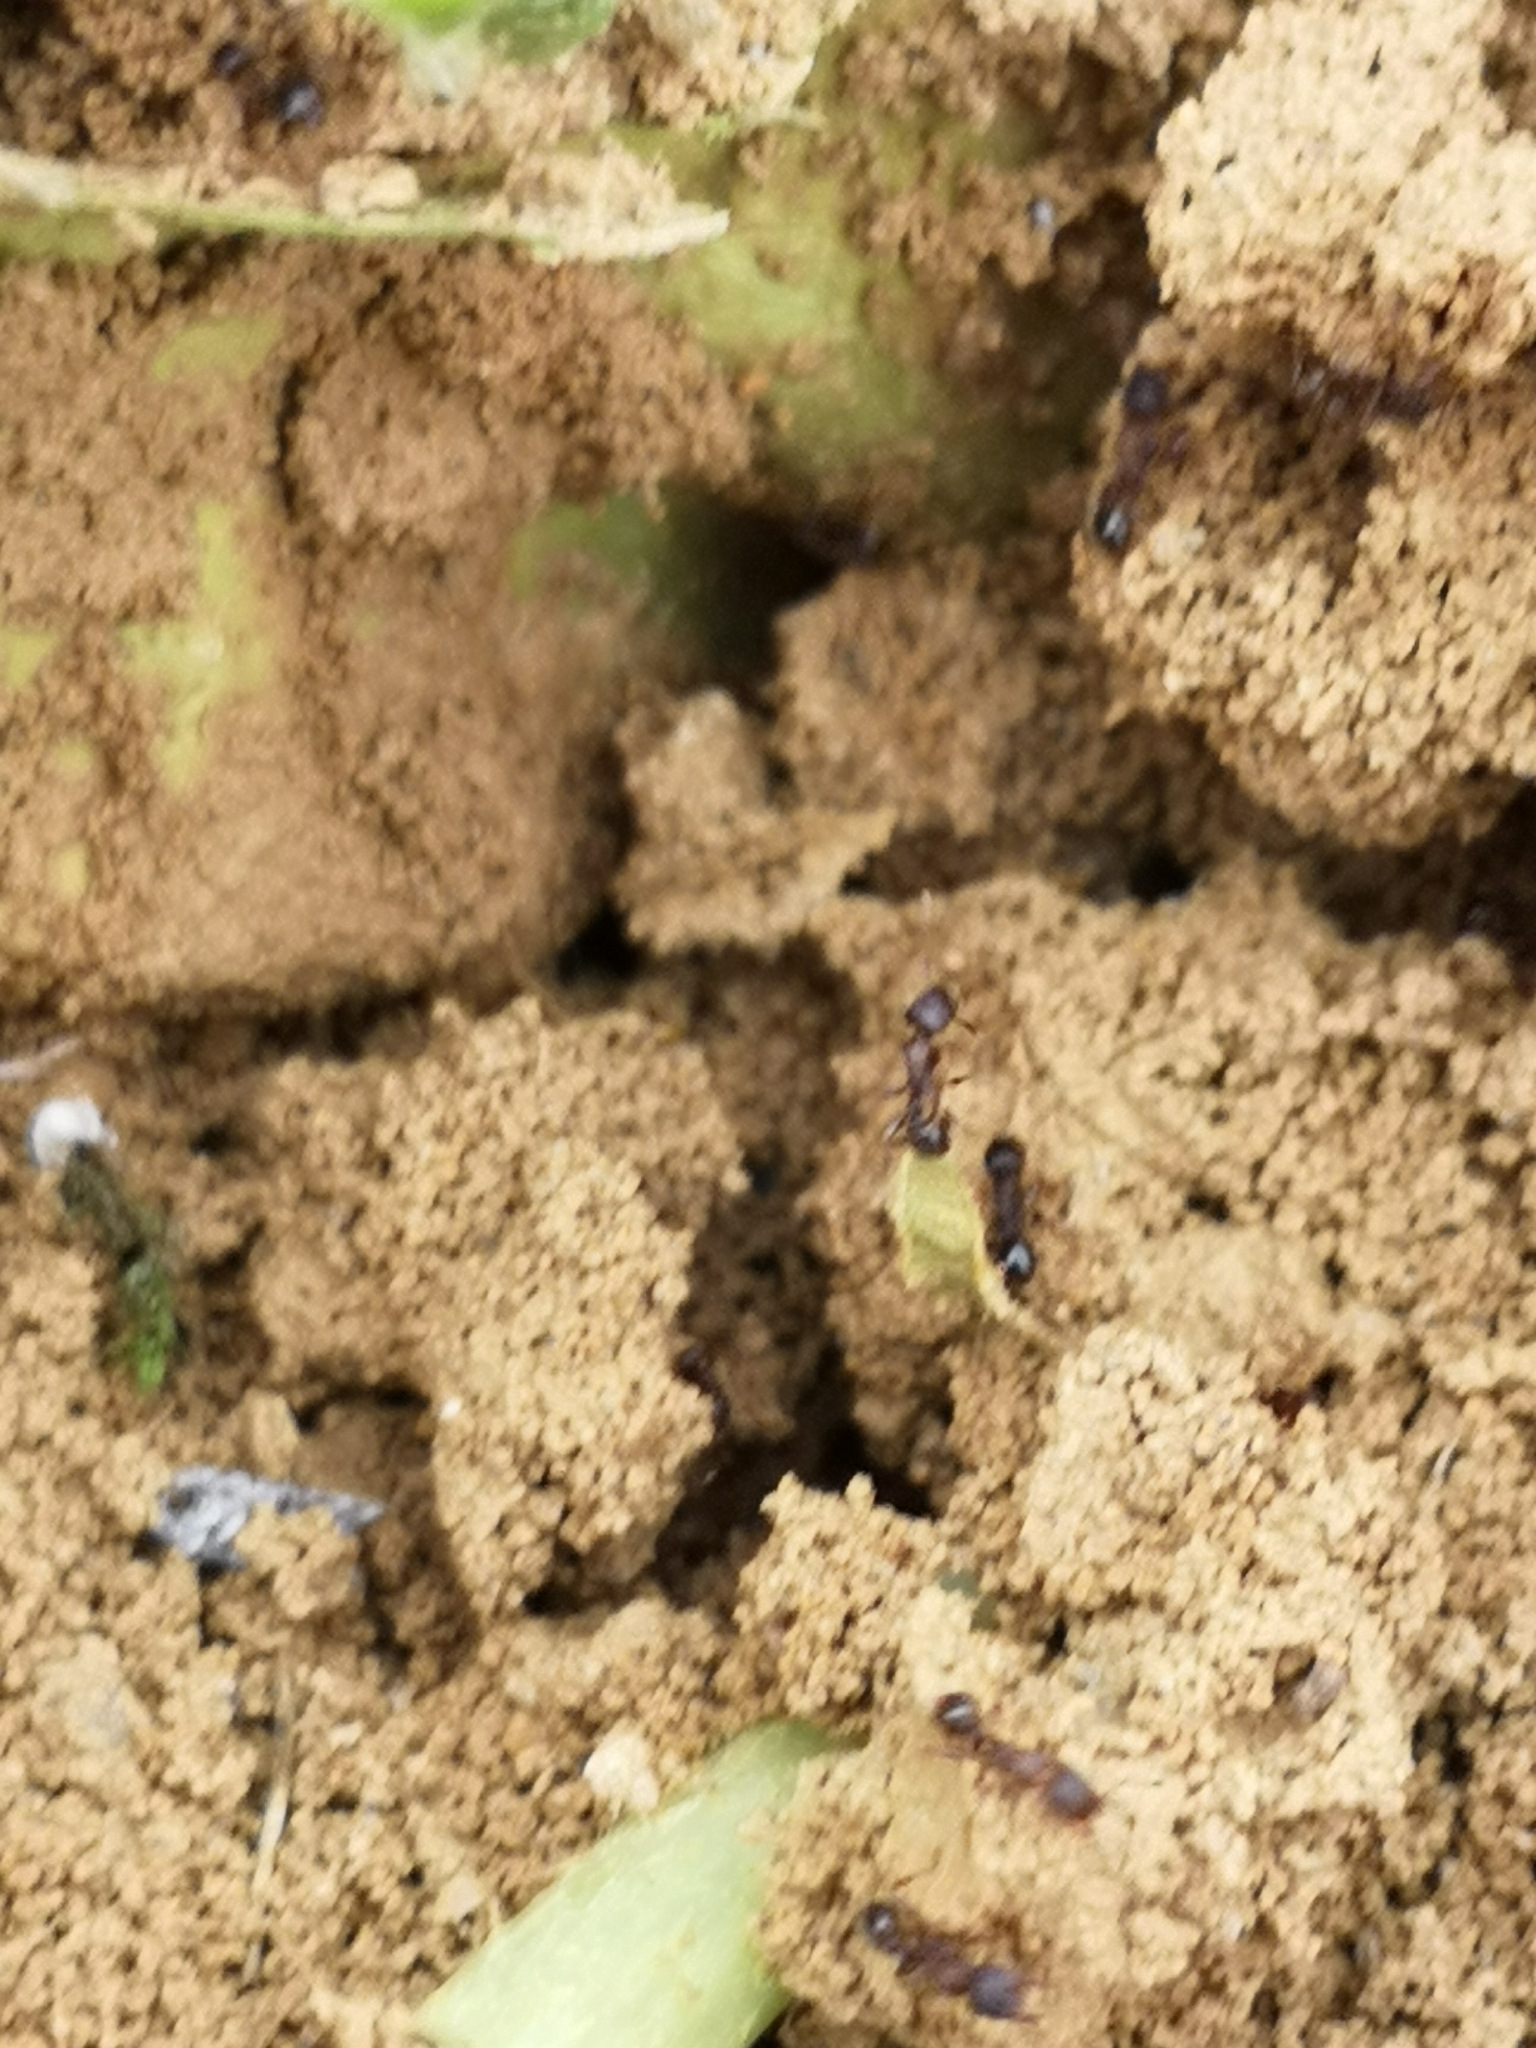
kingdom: Animalia
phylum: Arthropoda
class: Insecta
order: Hymenoptera
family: Formicidae
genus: Tetramorium
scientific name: Tetramorium moravicum
